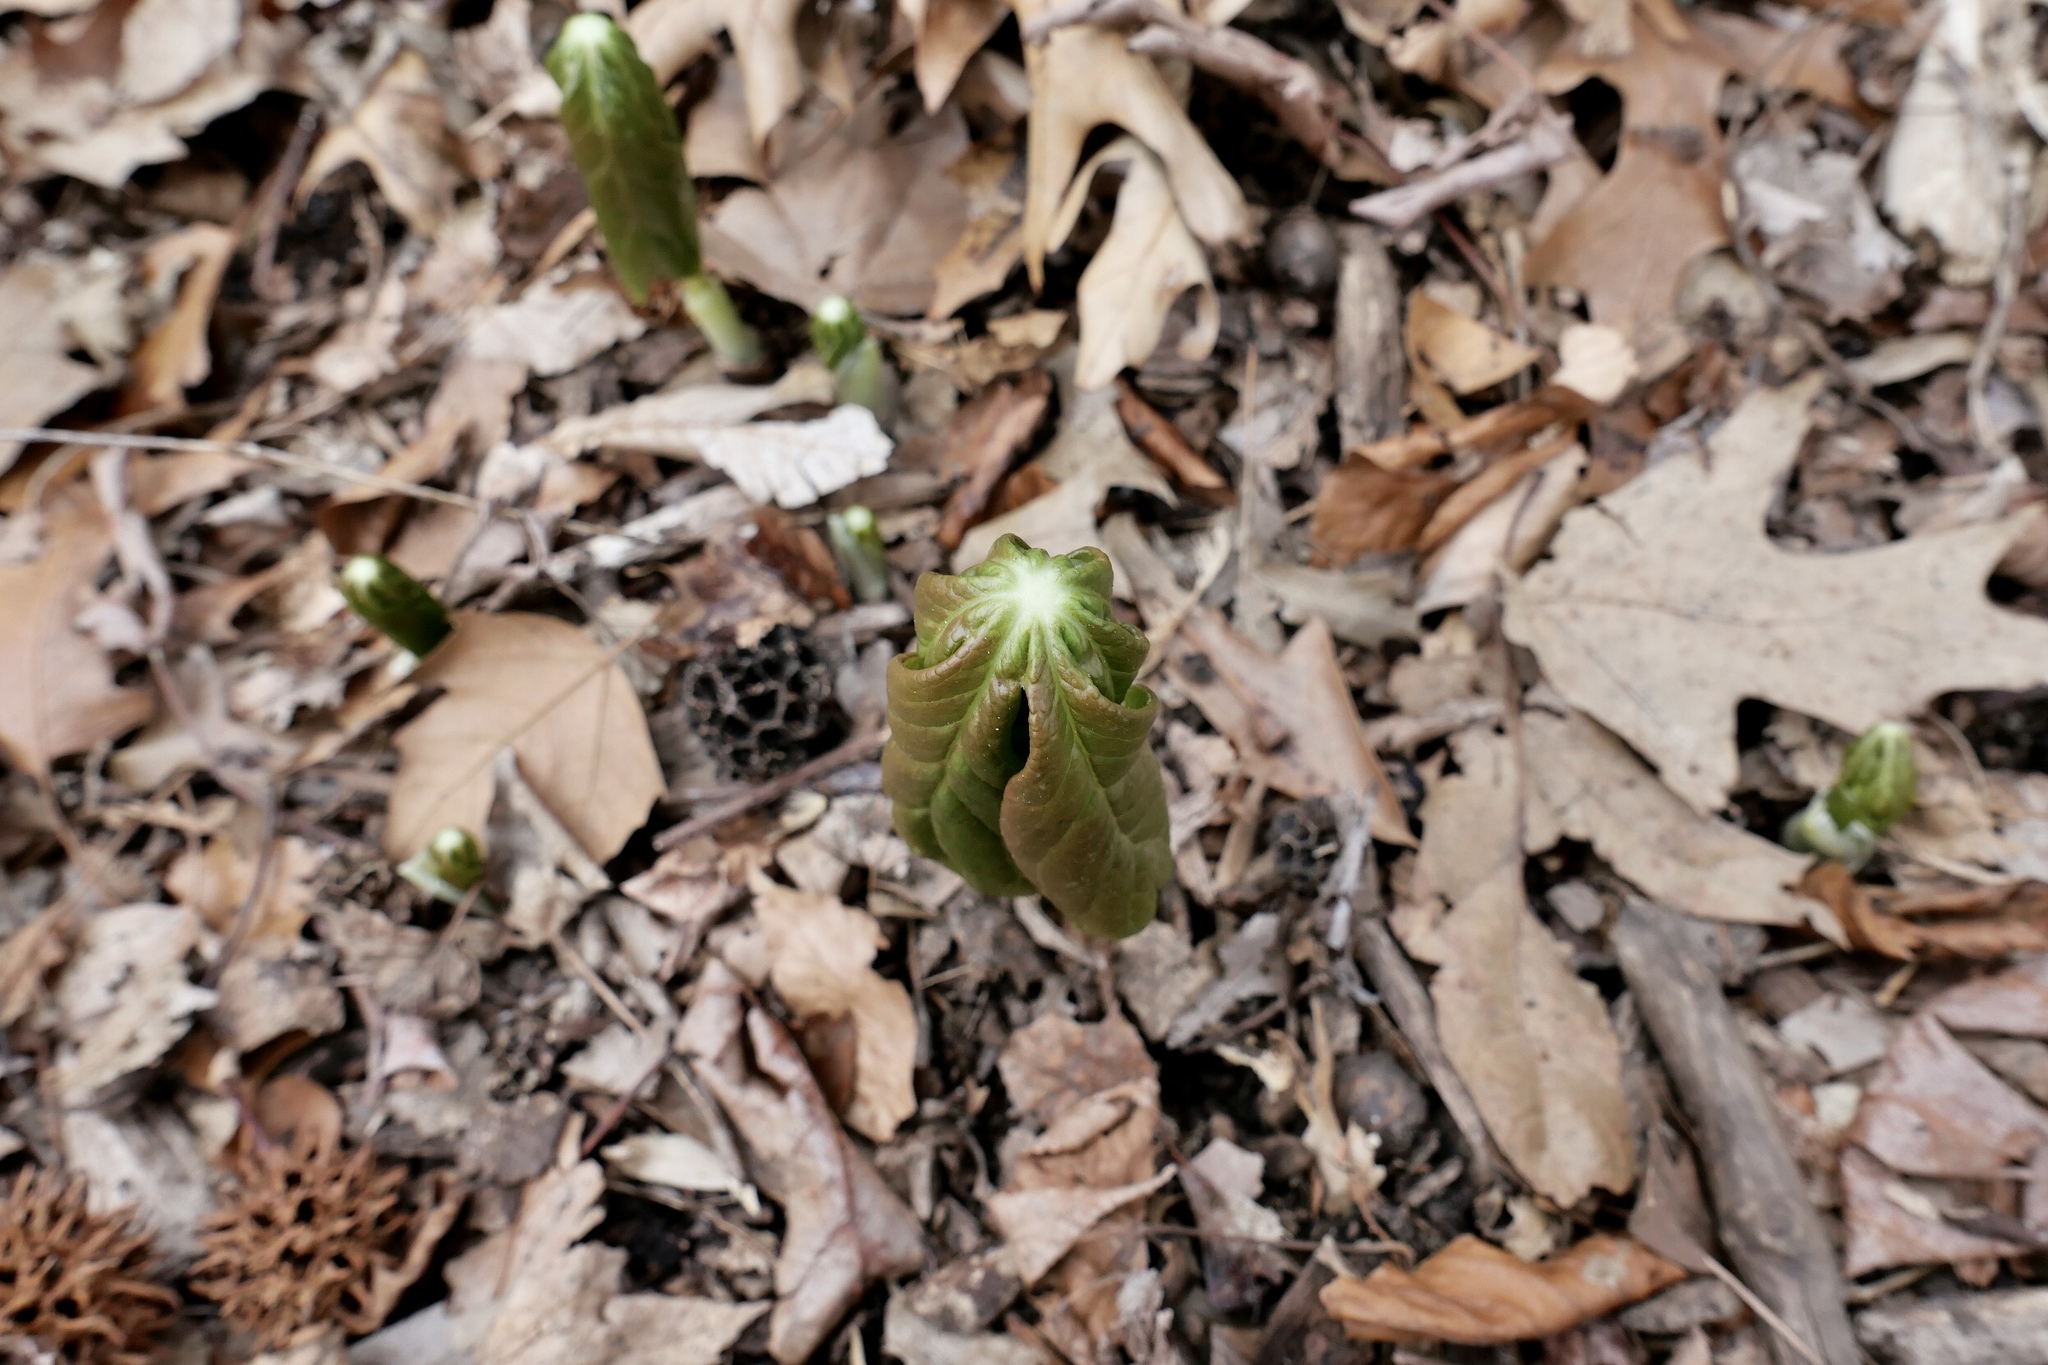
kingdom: Plantae
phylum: Tracheophyta
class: Magnoliopsida
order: Ranunculales
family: Berberidaceae
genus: Podophyllum
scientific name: Podophyllum peltatum
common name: Wild mandrake
